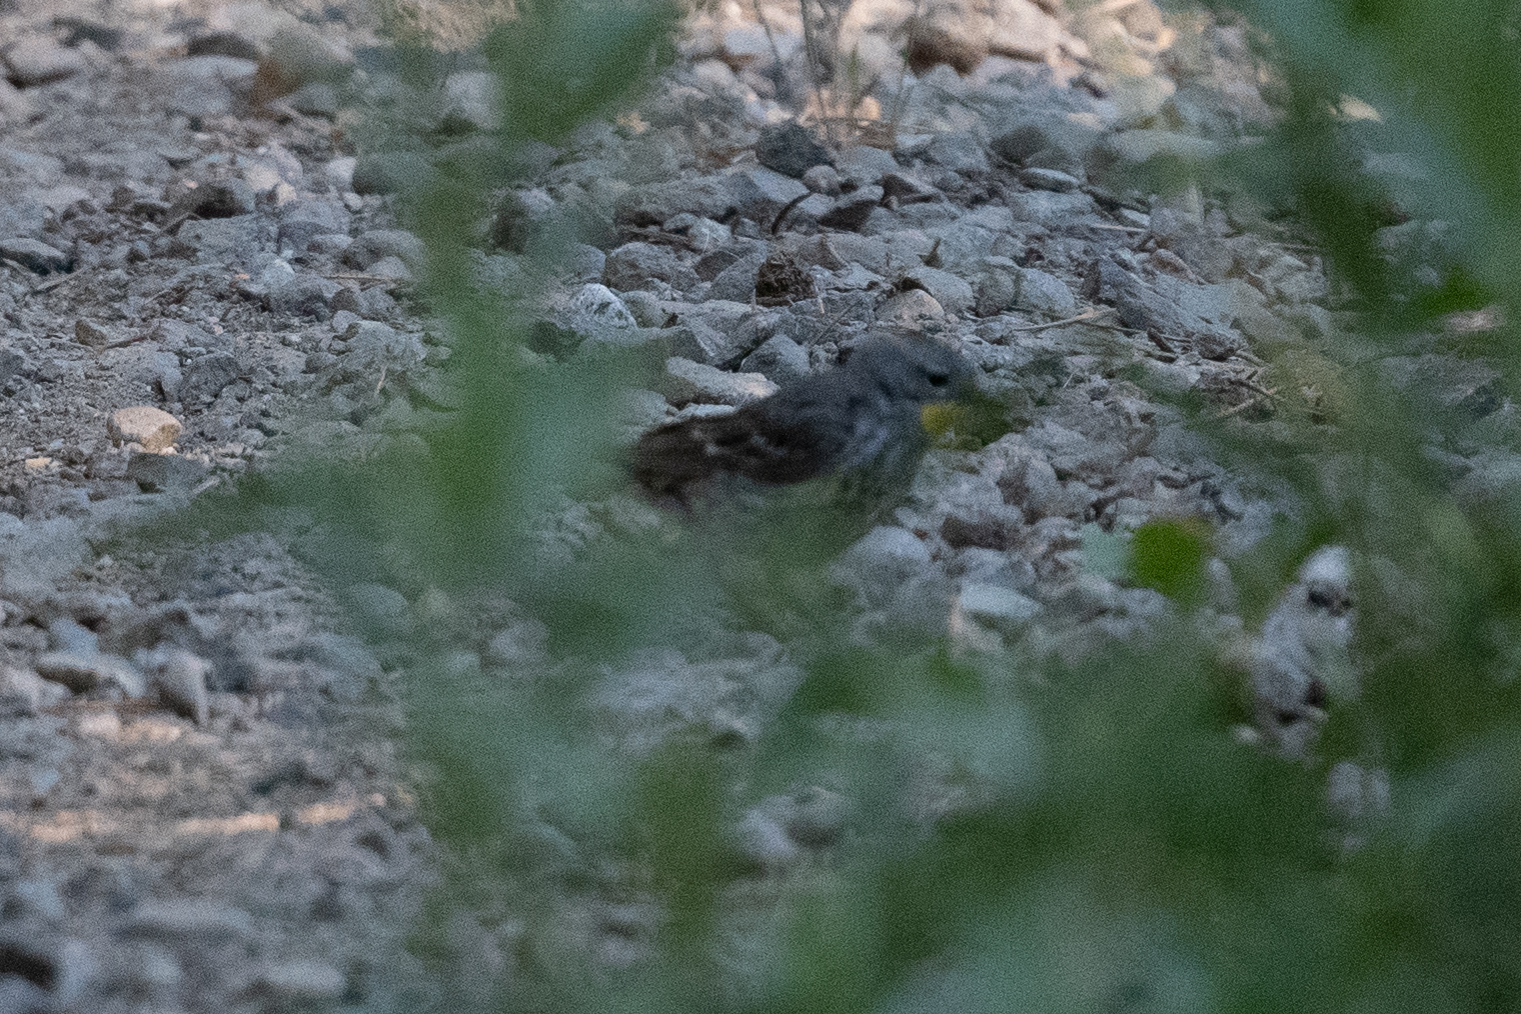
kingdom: Animalia
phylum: Chordata
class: Aves
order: Passeriformes
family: Parulidae
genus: Setophaga
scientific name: Setophaga coronata
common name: Myrtle warbler
